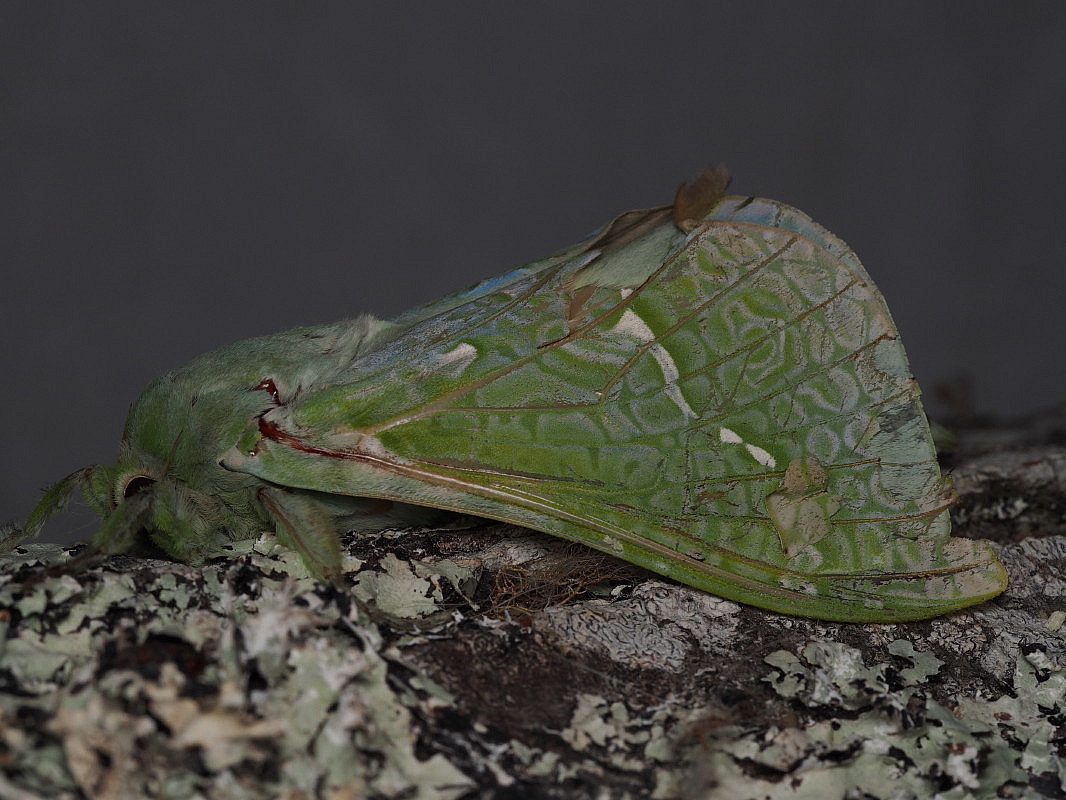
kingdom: Animalia
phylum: Arthropoda
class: Insecta
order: Lepidoptera
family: Hepialidae
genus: Aenetus
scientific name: Aenetus virescens
